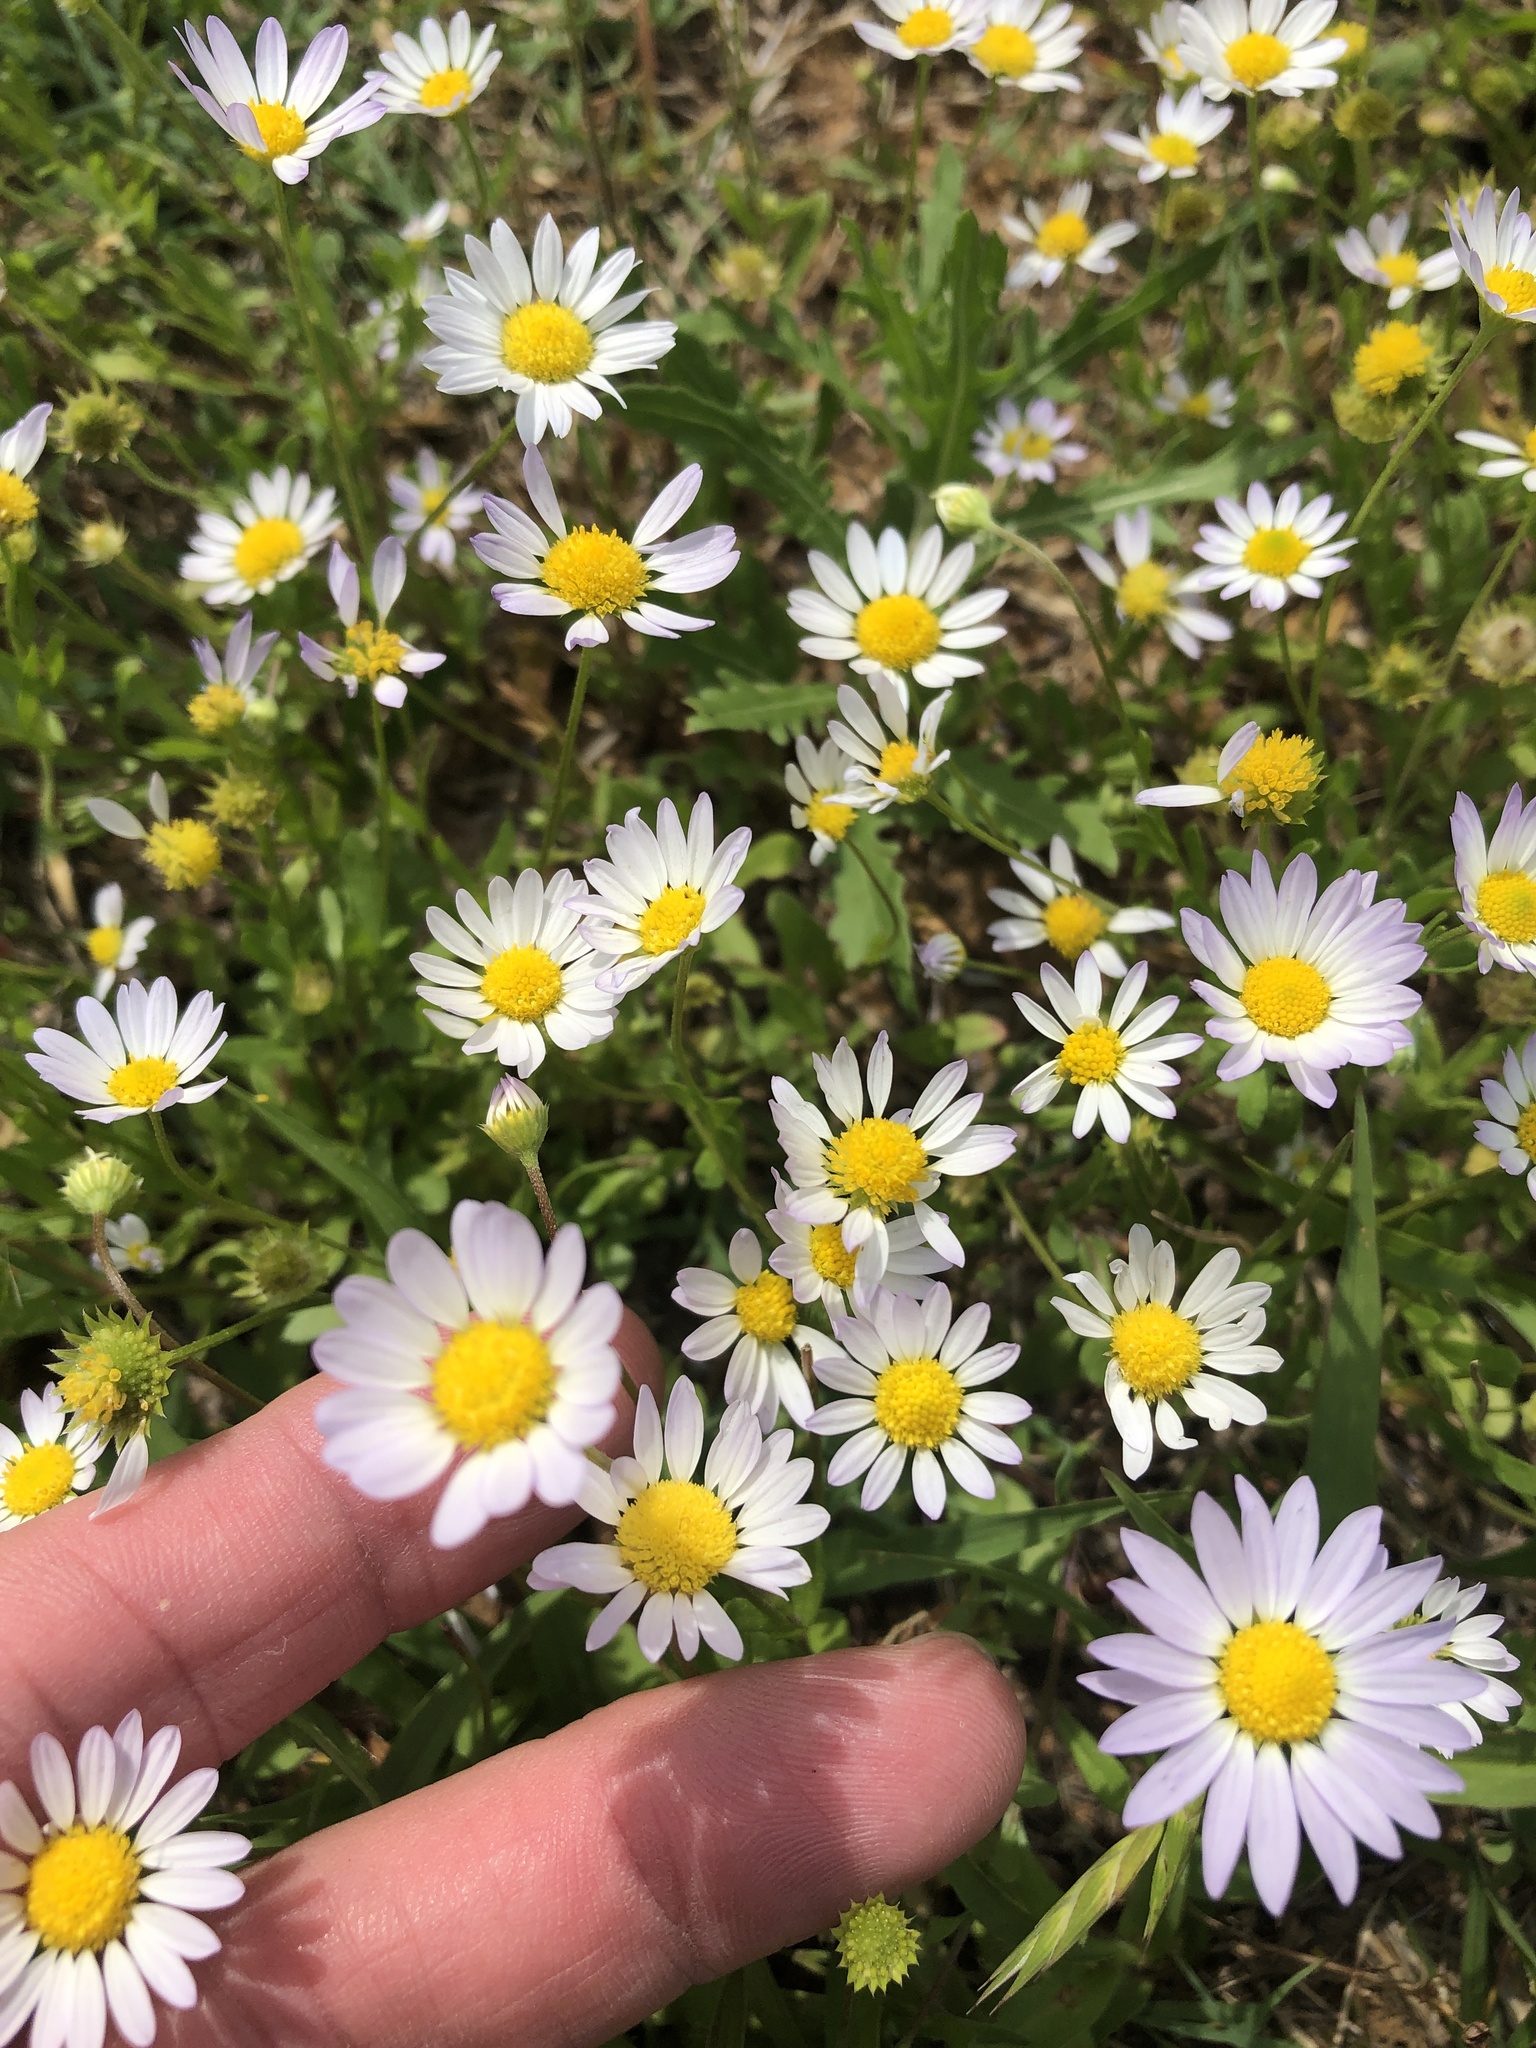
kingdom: Plantae
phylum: Tracheophyta
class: Magnoliopsida
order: Asterales
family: Asteraceae
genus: Astranthium
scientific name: Astranthium ciliatum
